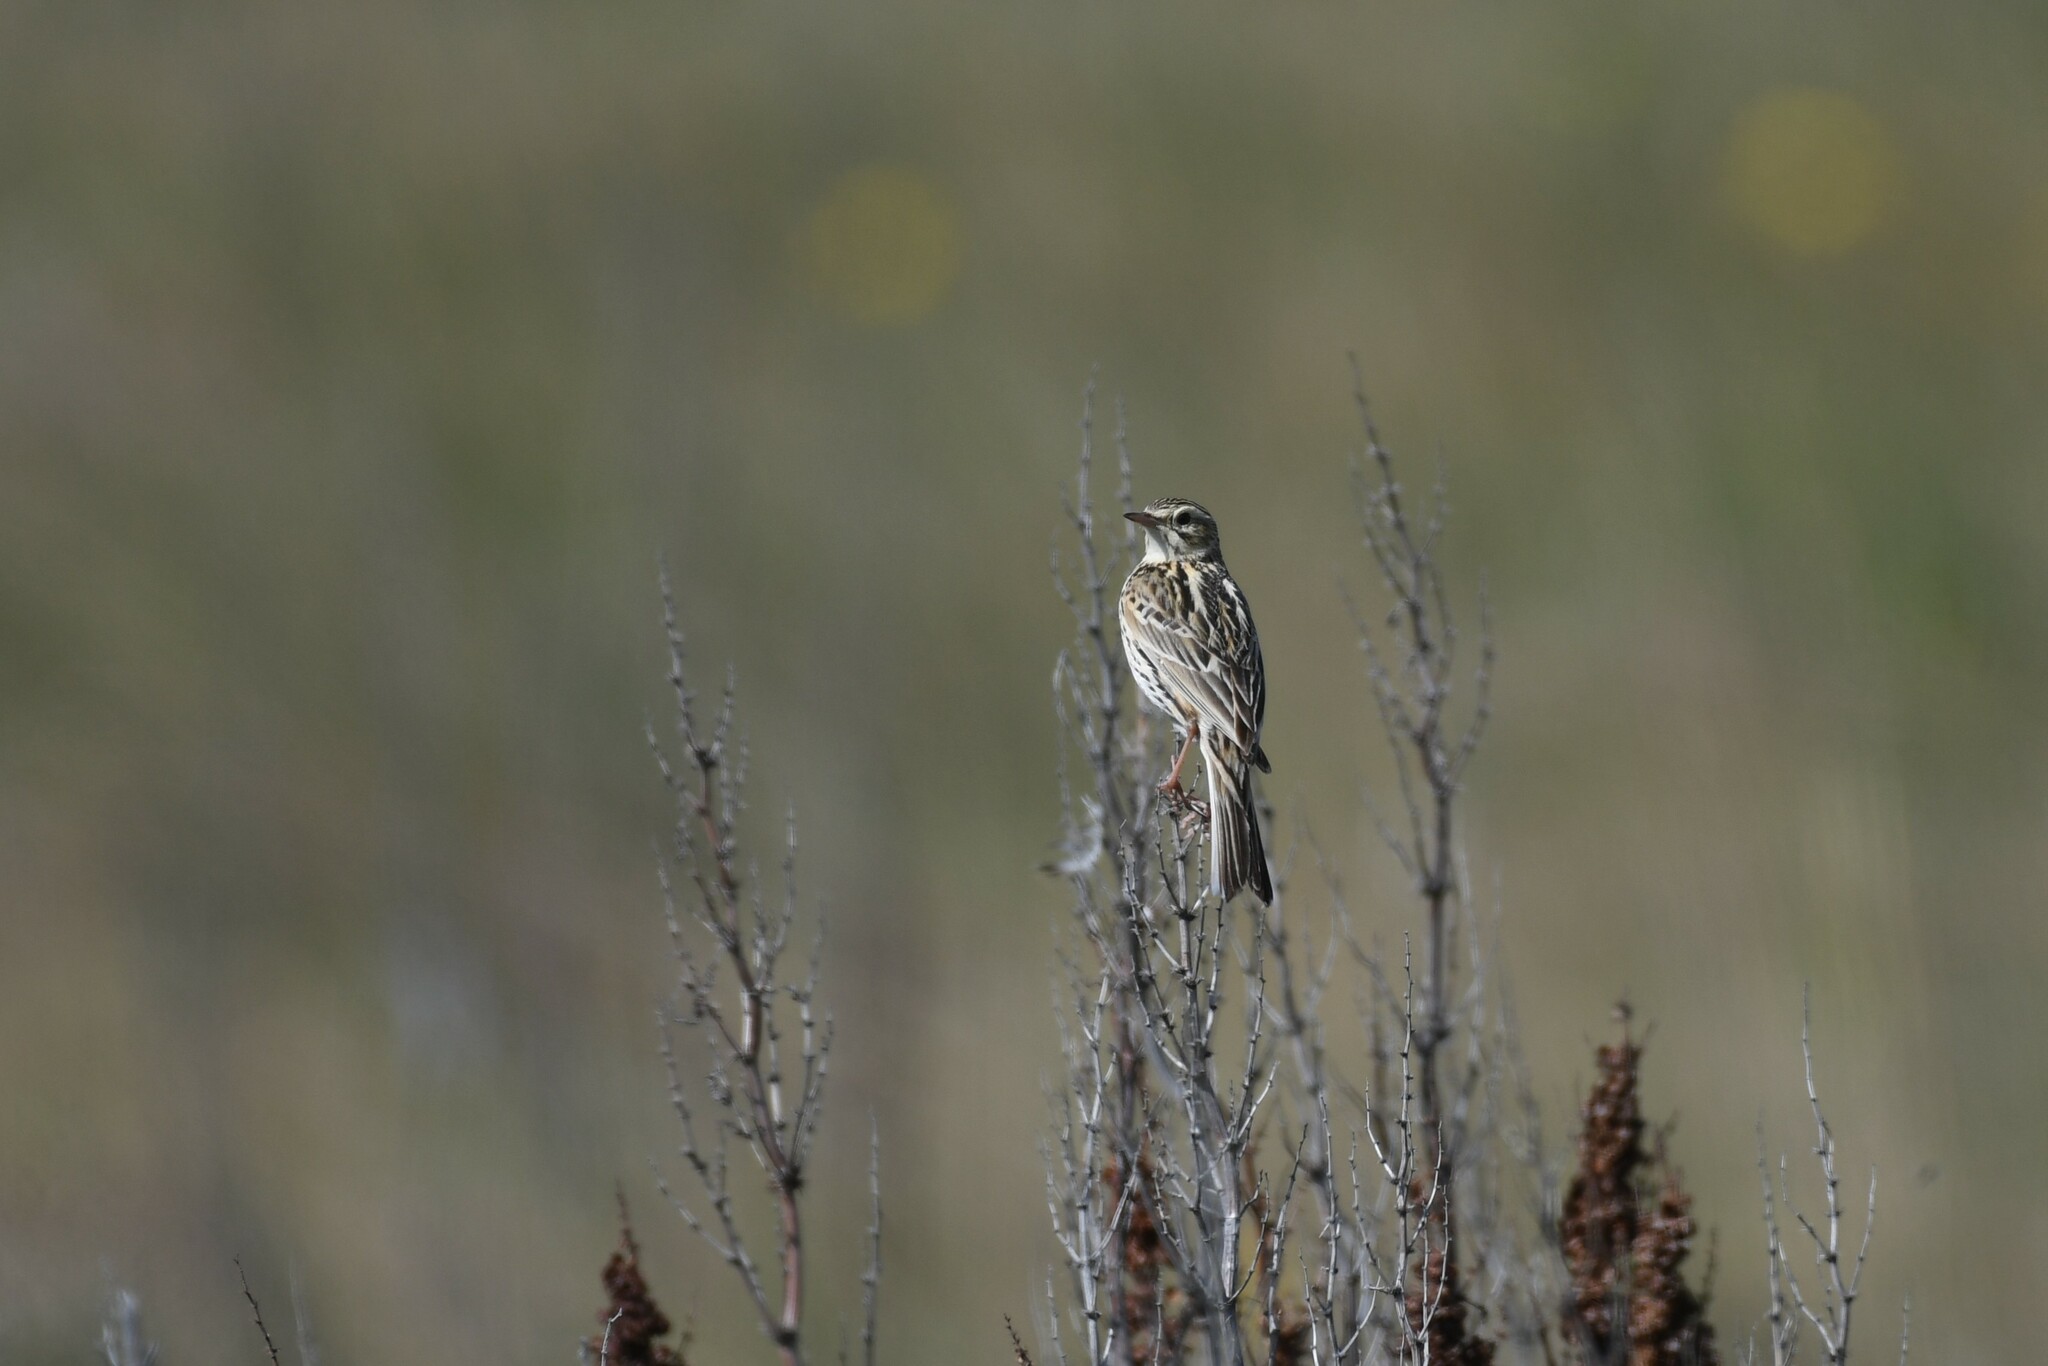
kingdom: Animalia
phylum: Chordata
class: Aves
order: Passeriformes
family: Motacillidae
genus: Anthus
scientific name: Anthus correndera
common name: Correndera pipit
